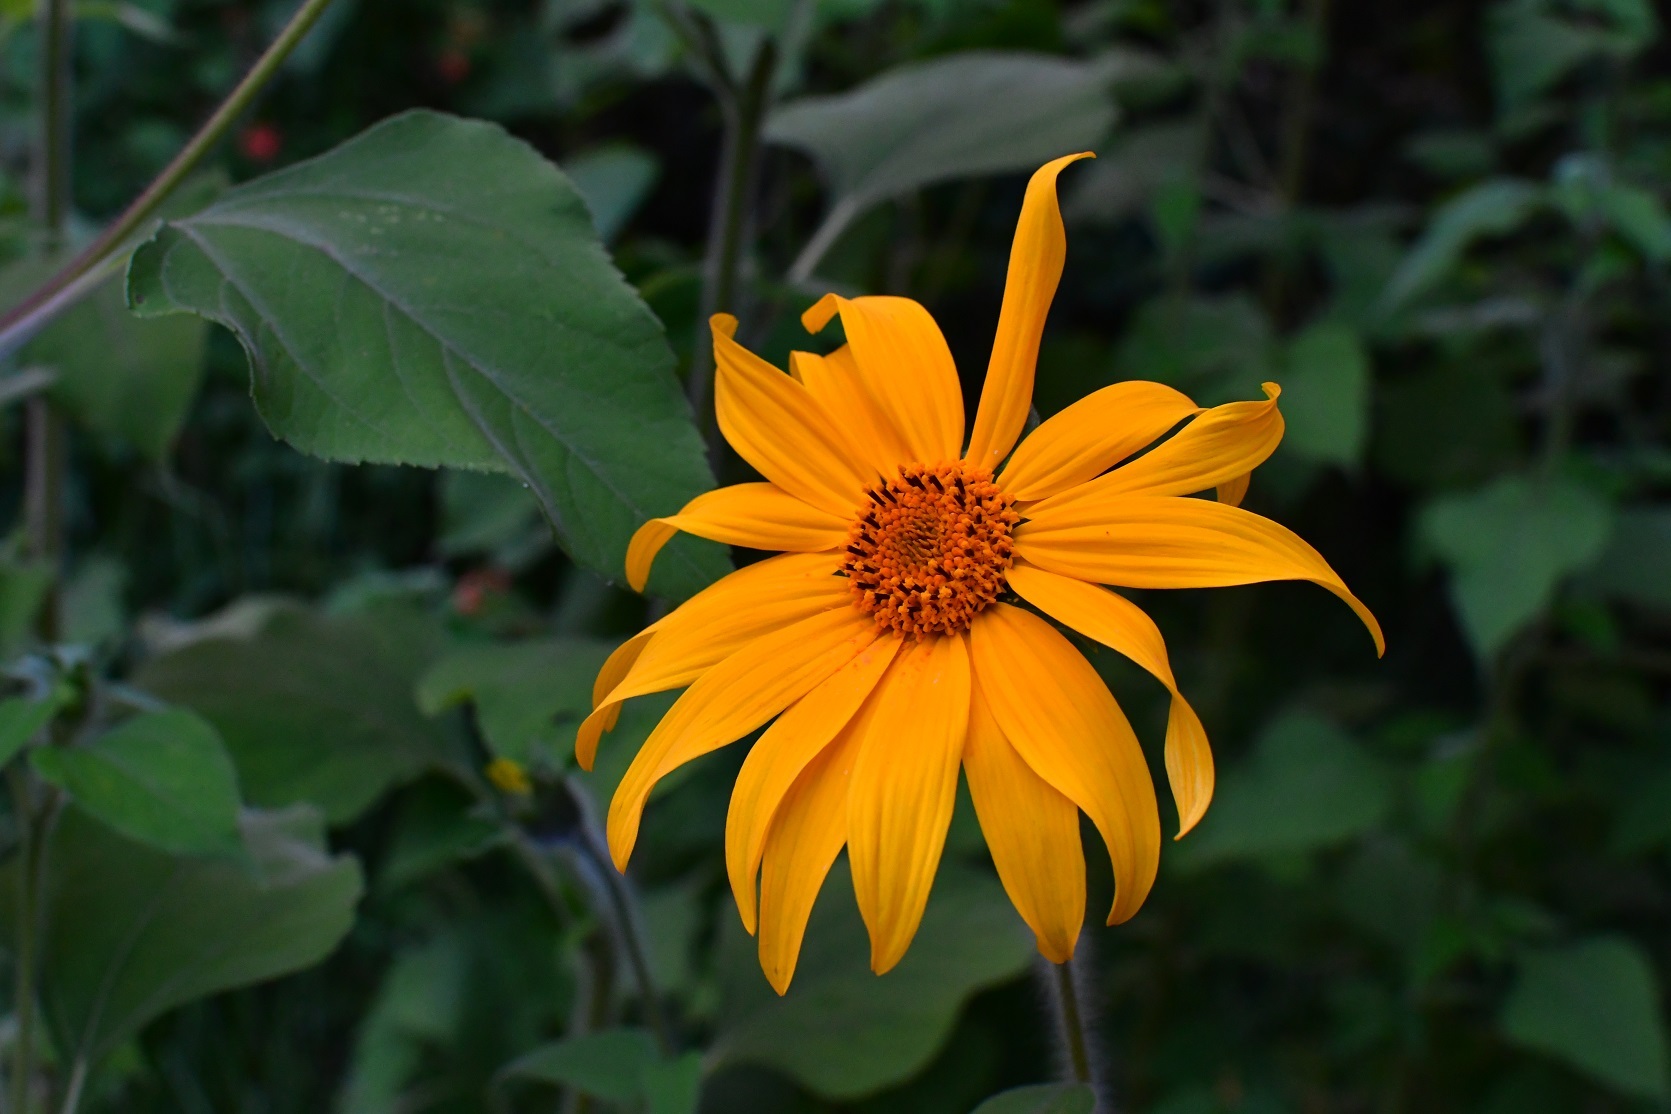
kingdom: Plantae
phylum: Tracheophyta
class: Magnoliopsida
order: Asterales
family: Asteraceae
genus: Tithonia
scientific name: Tithonia tubaeformis
